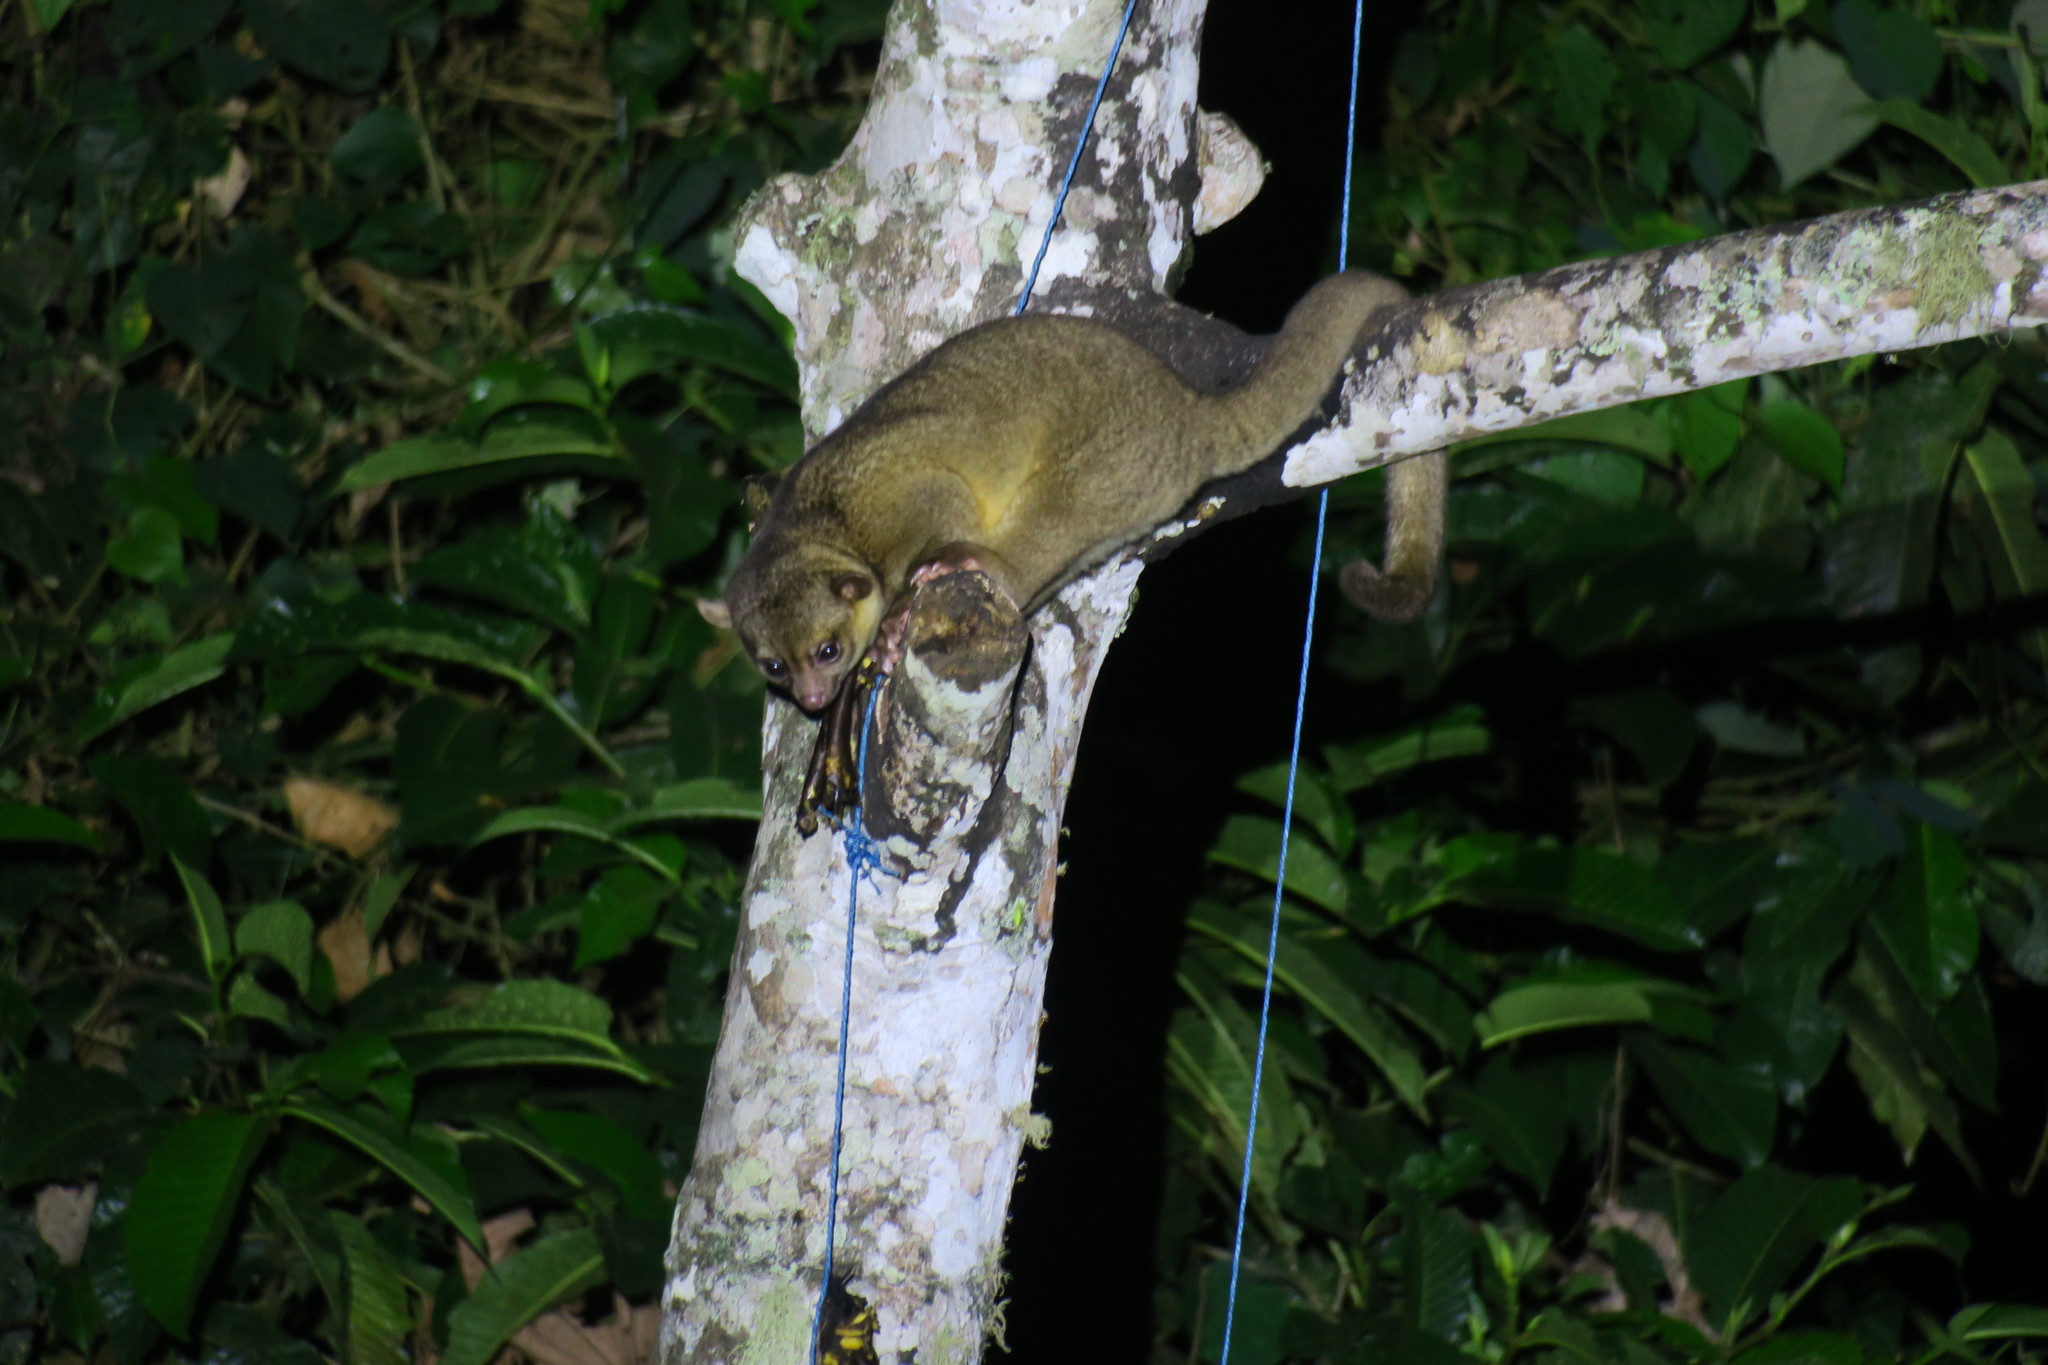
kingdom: Animalia
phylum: Chordata
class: Mammalia
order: Carnivora
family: Procyonidae
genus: Potos
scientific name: Potos flavus
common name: Kinkajou
